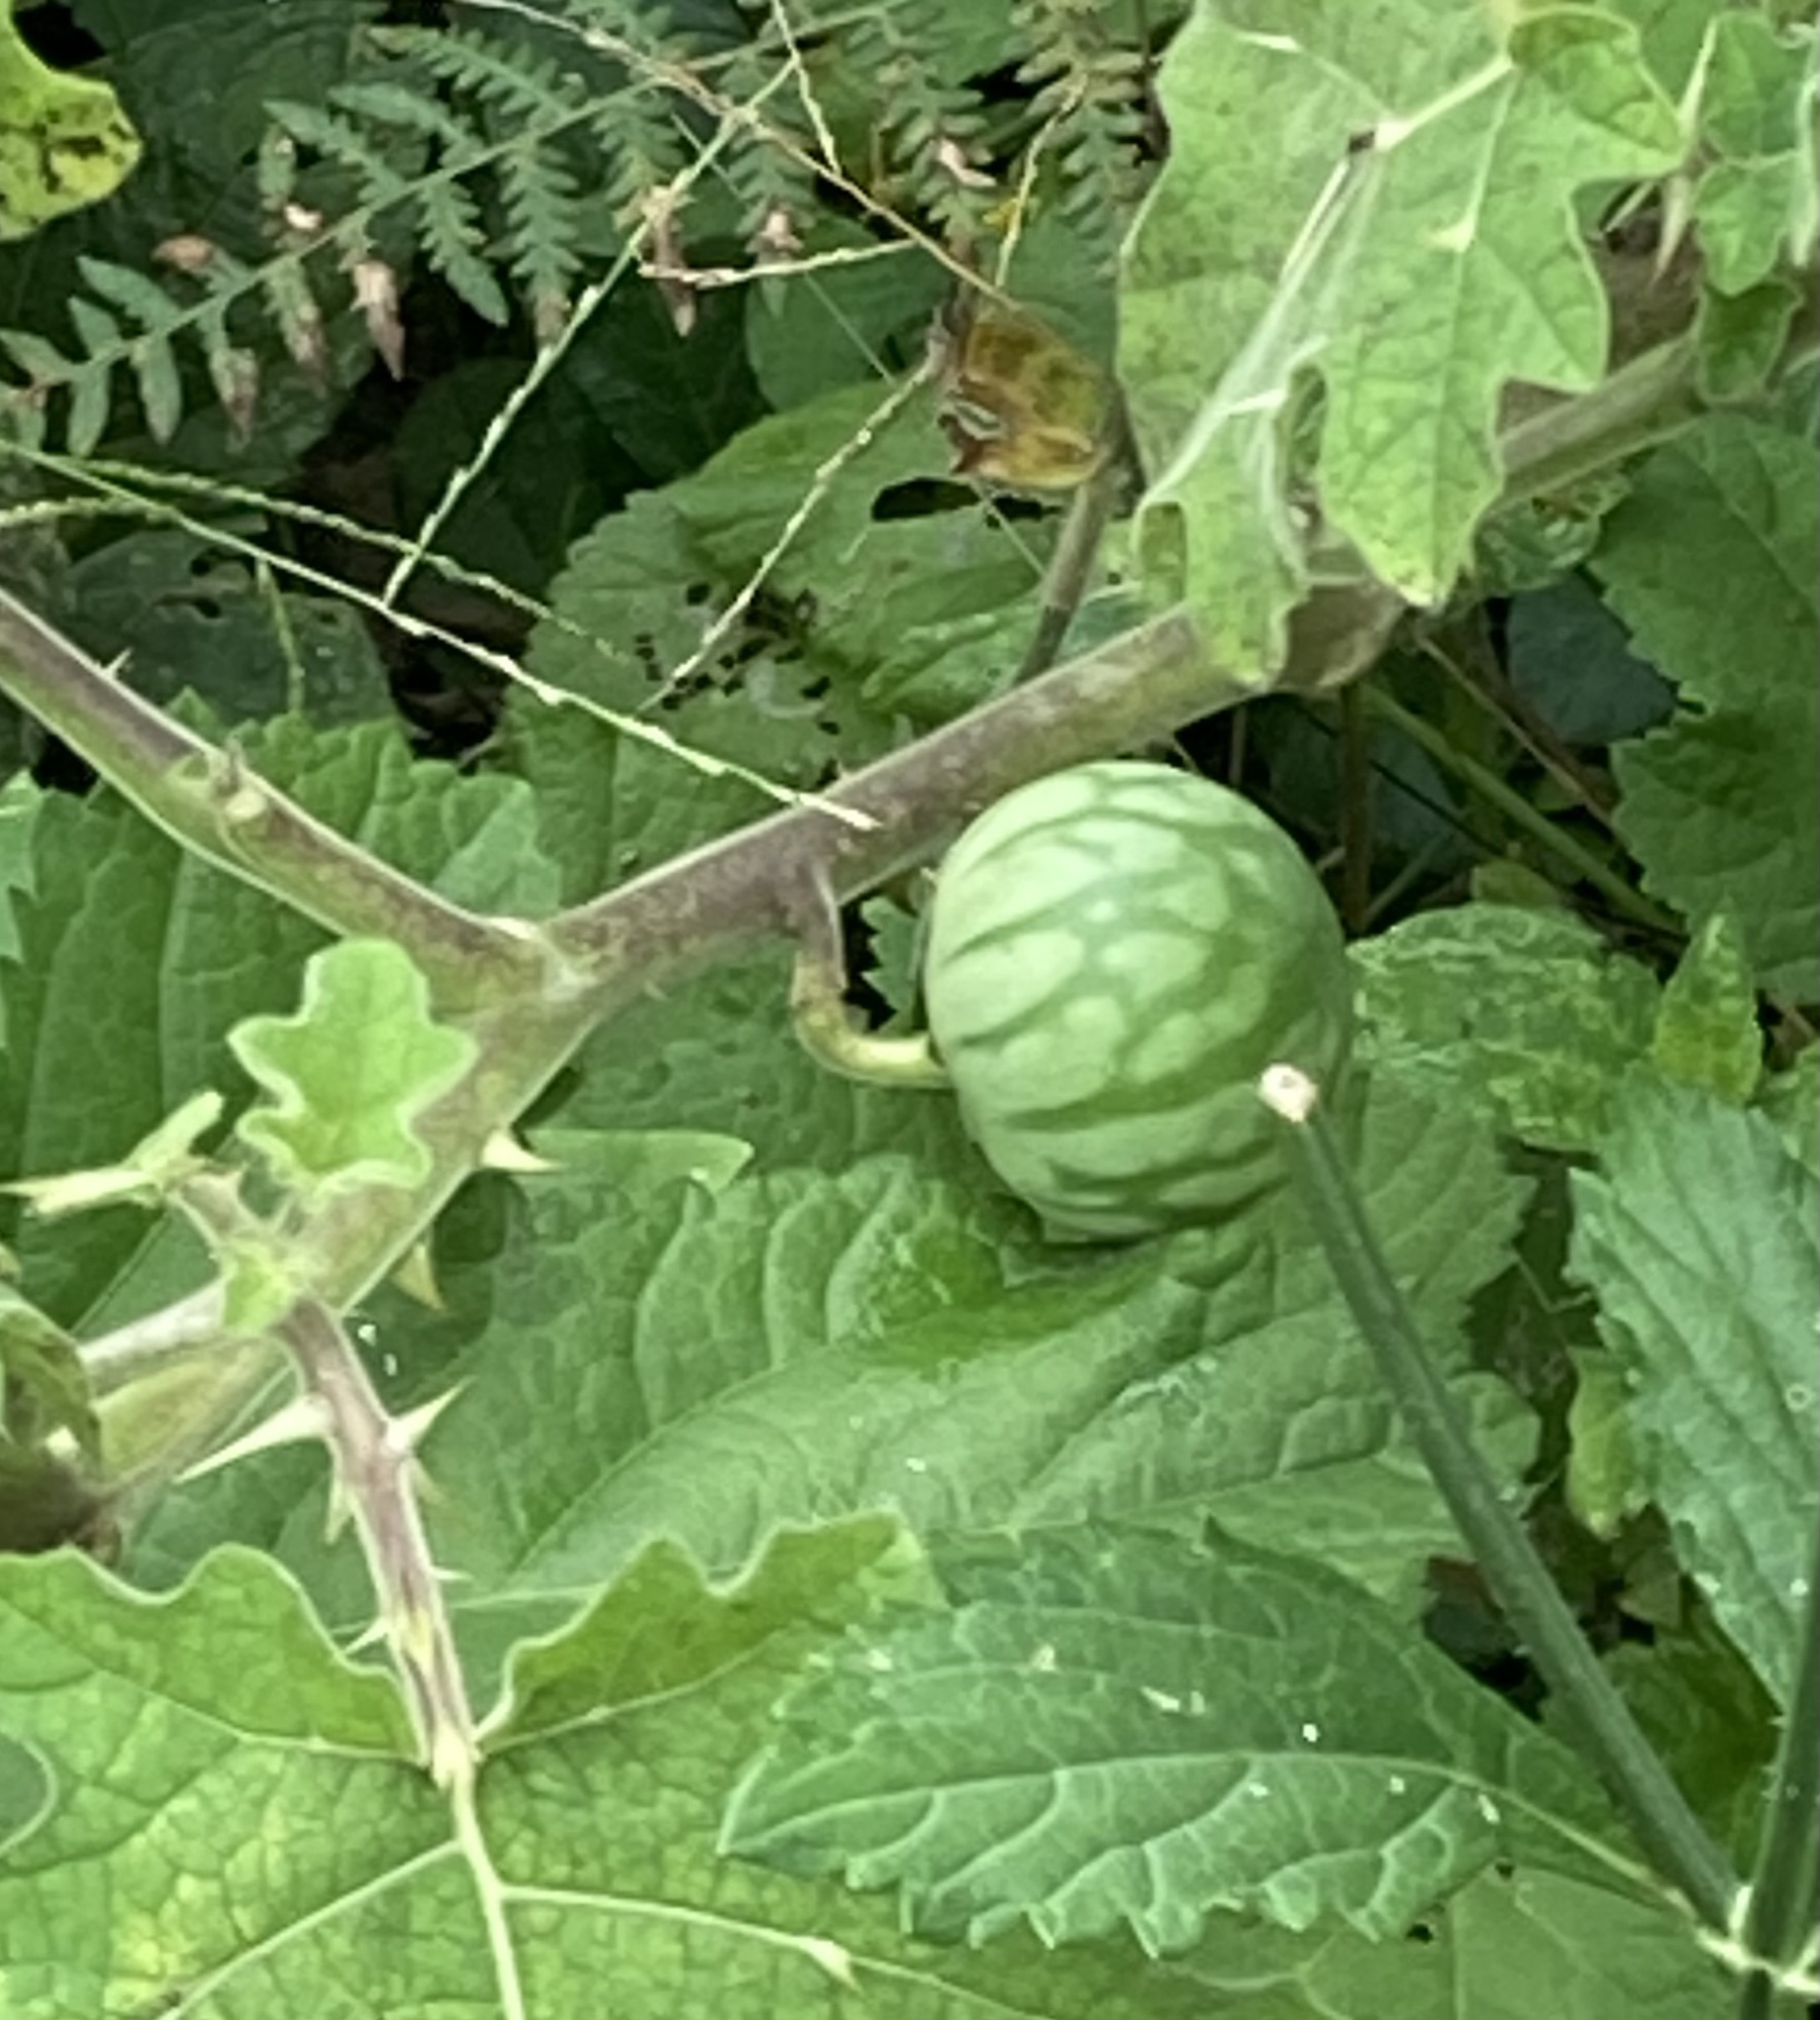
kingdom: Plantae
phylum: Tracheophyta
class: Magnoliopsida
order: Solanales
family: Solanaceae
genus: Solanum
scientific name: Solanum viarum
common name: Tropical soda apple
